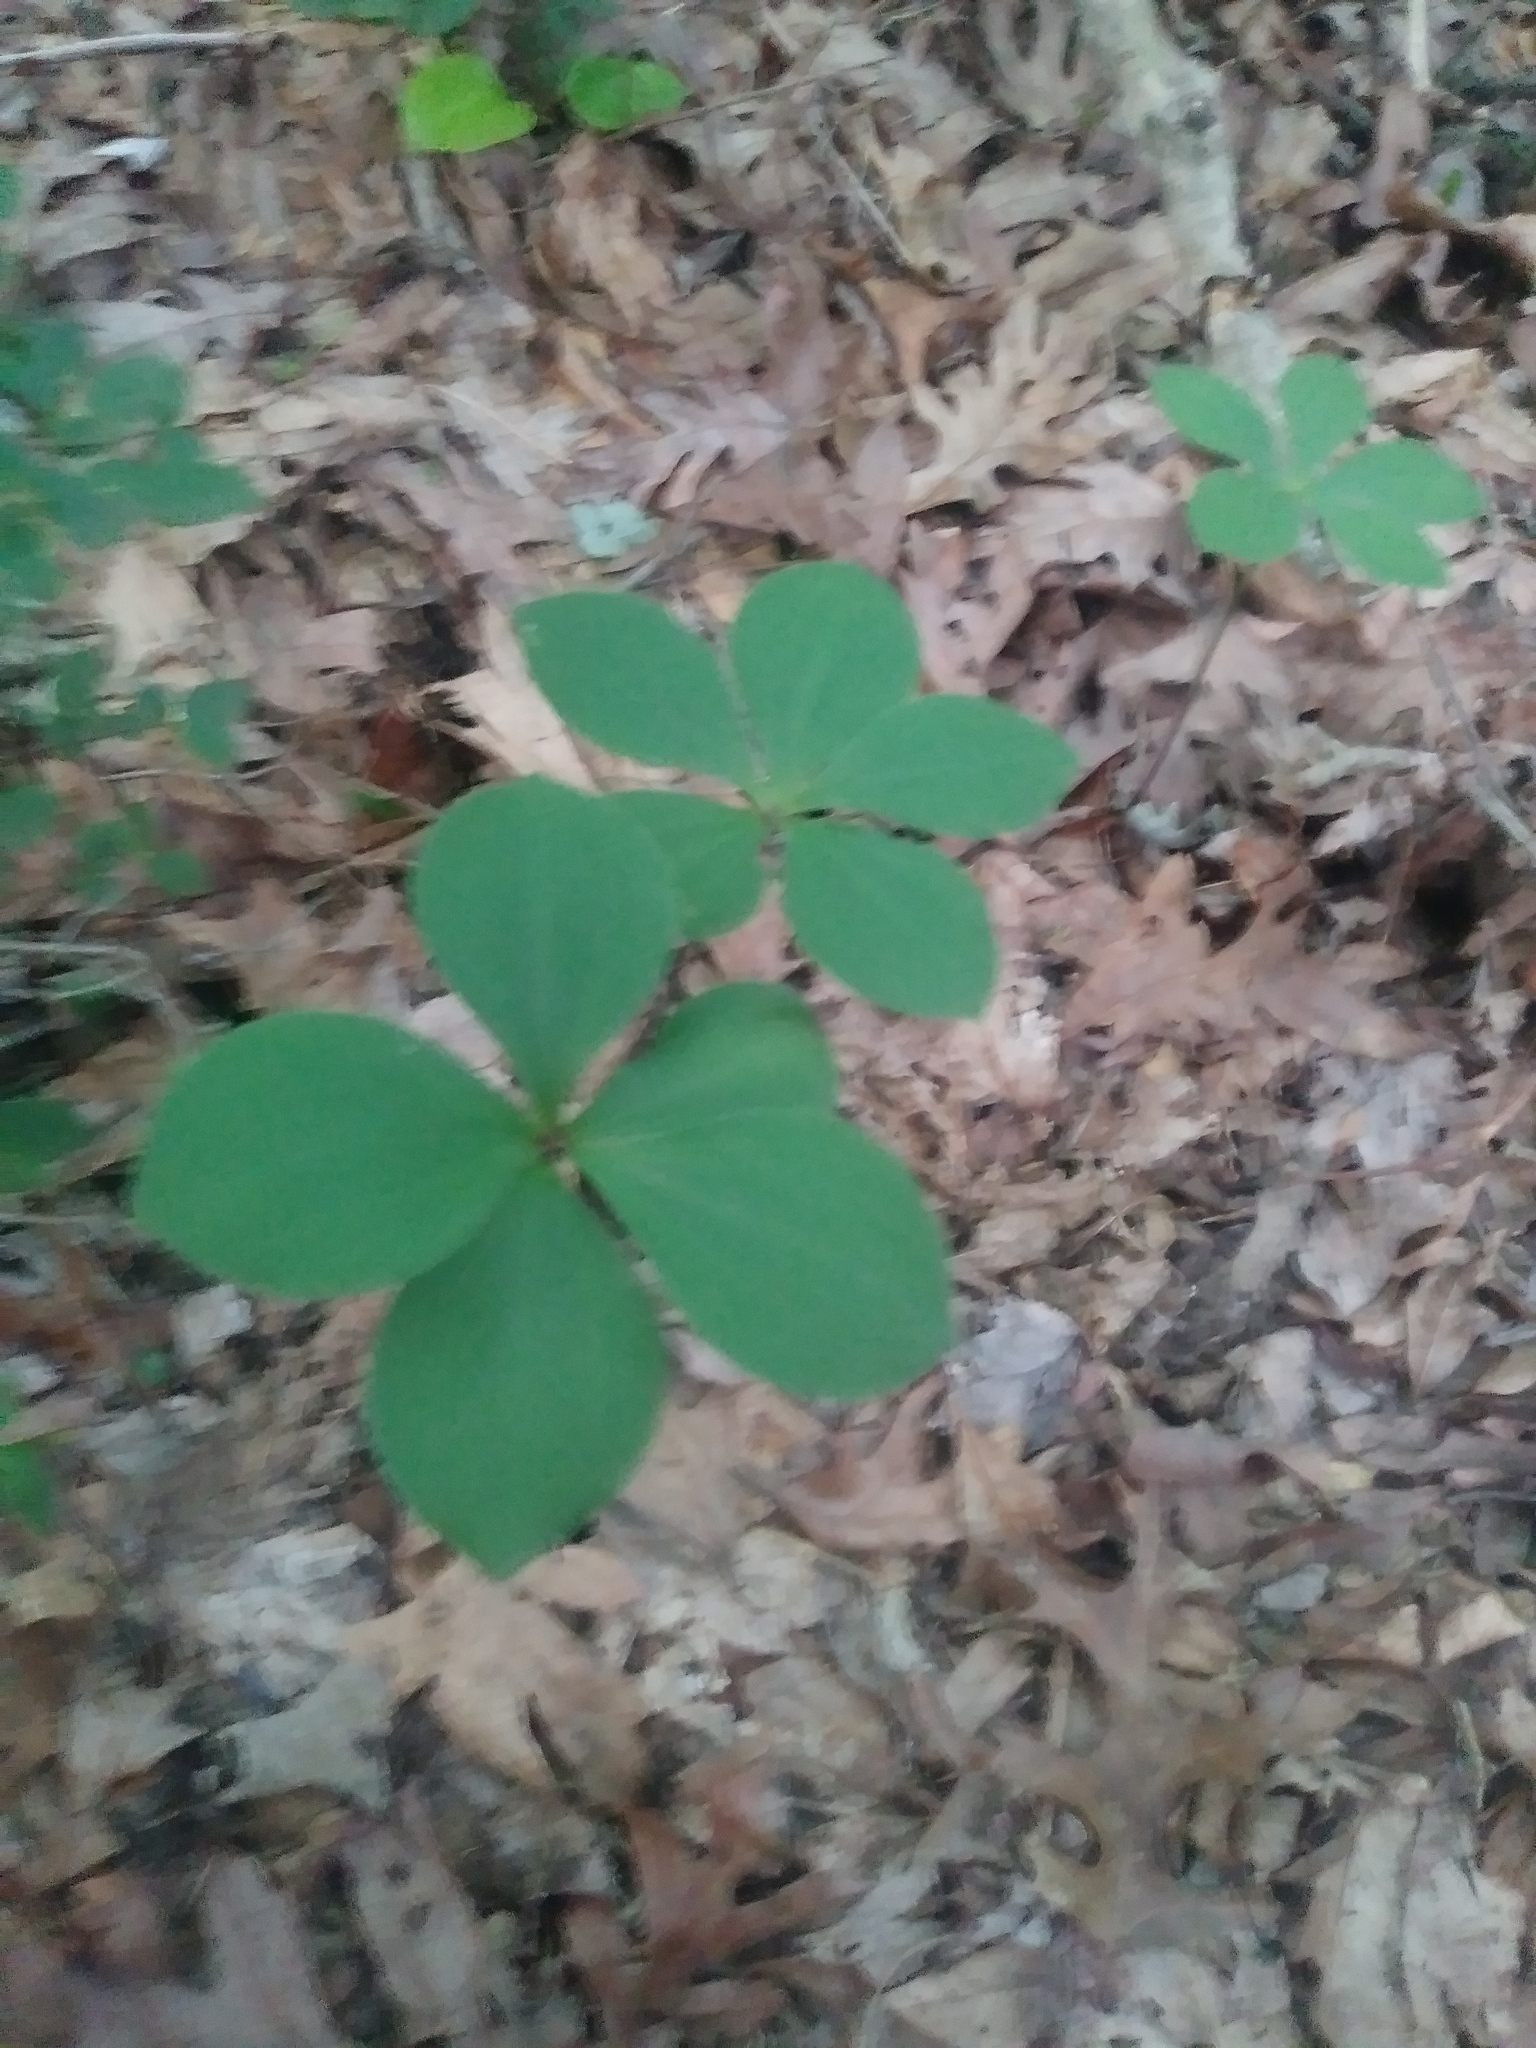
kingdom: Plantae
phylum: Tracheophyta
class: Liliopsida
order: Asparagales
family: Orchidaceae
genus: Isotria
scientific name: Isotria verticillata
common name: Large whorled pogonia
